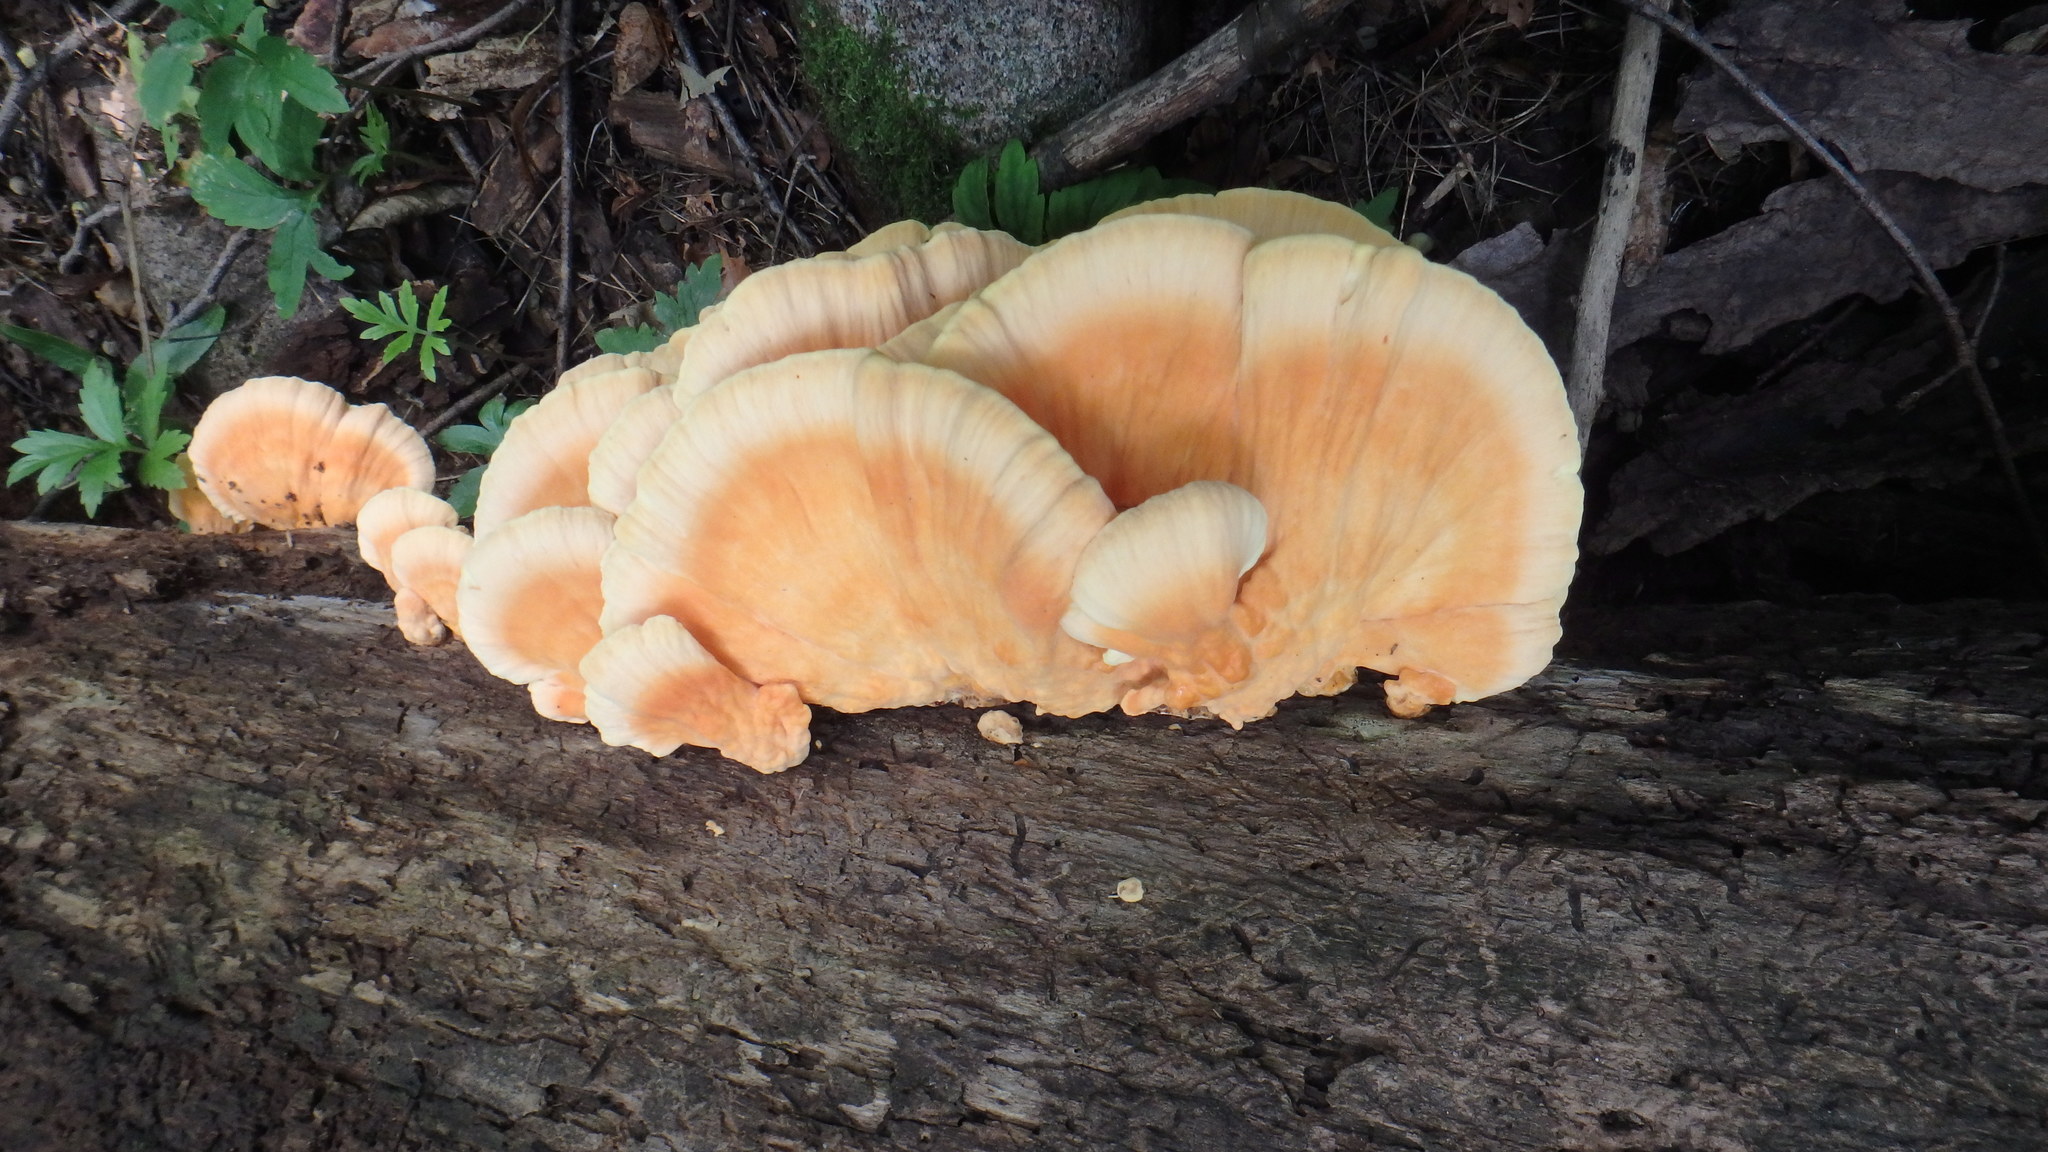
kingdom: Fungi
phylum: Basidiomycota
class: Agaricomycetes
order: Polyporales
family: Laetiporaceae
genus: Laetiporus
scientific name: Laetiporus sulphureus
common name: Chicken of the woods
